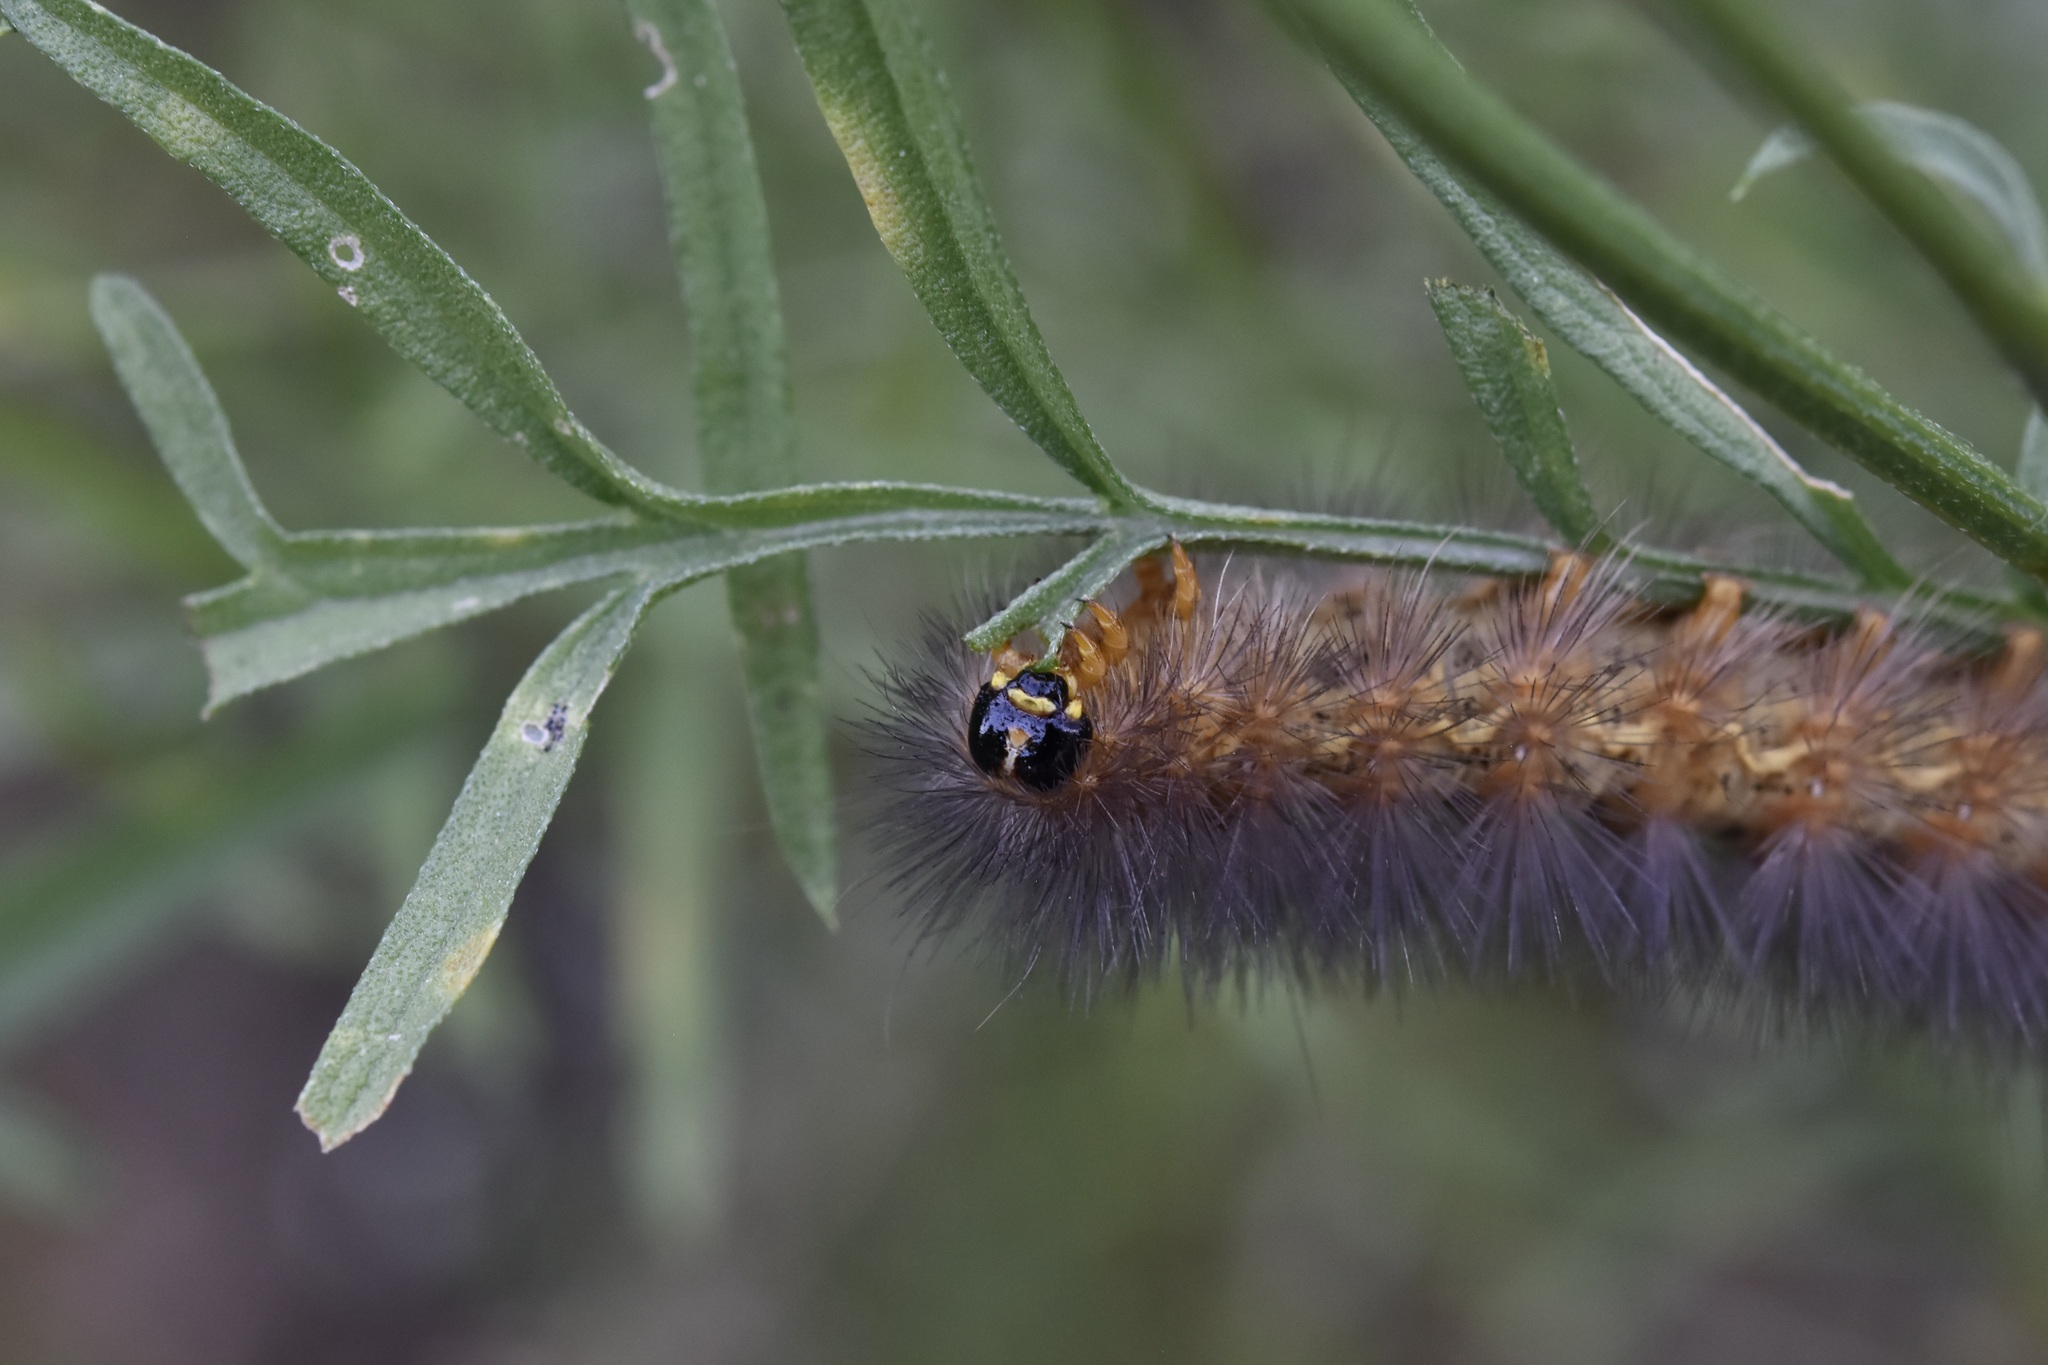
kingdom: Animalia
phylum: Arthropoda
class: Insecta
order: Lepidoptera
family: Erebidae
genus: Estigmene
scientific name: Estigmene acrea
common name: Salt marsh moth
